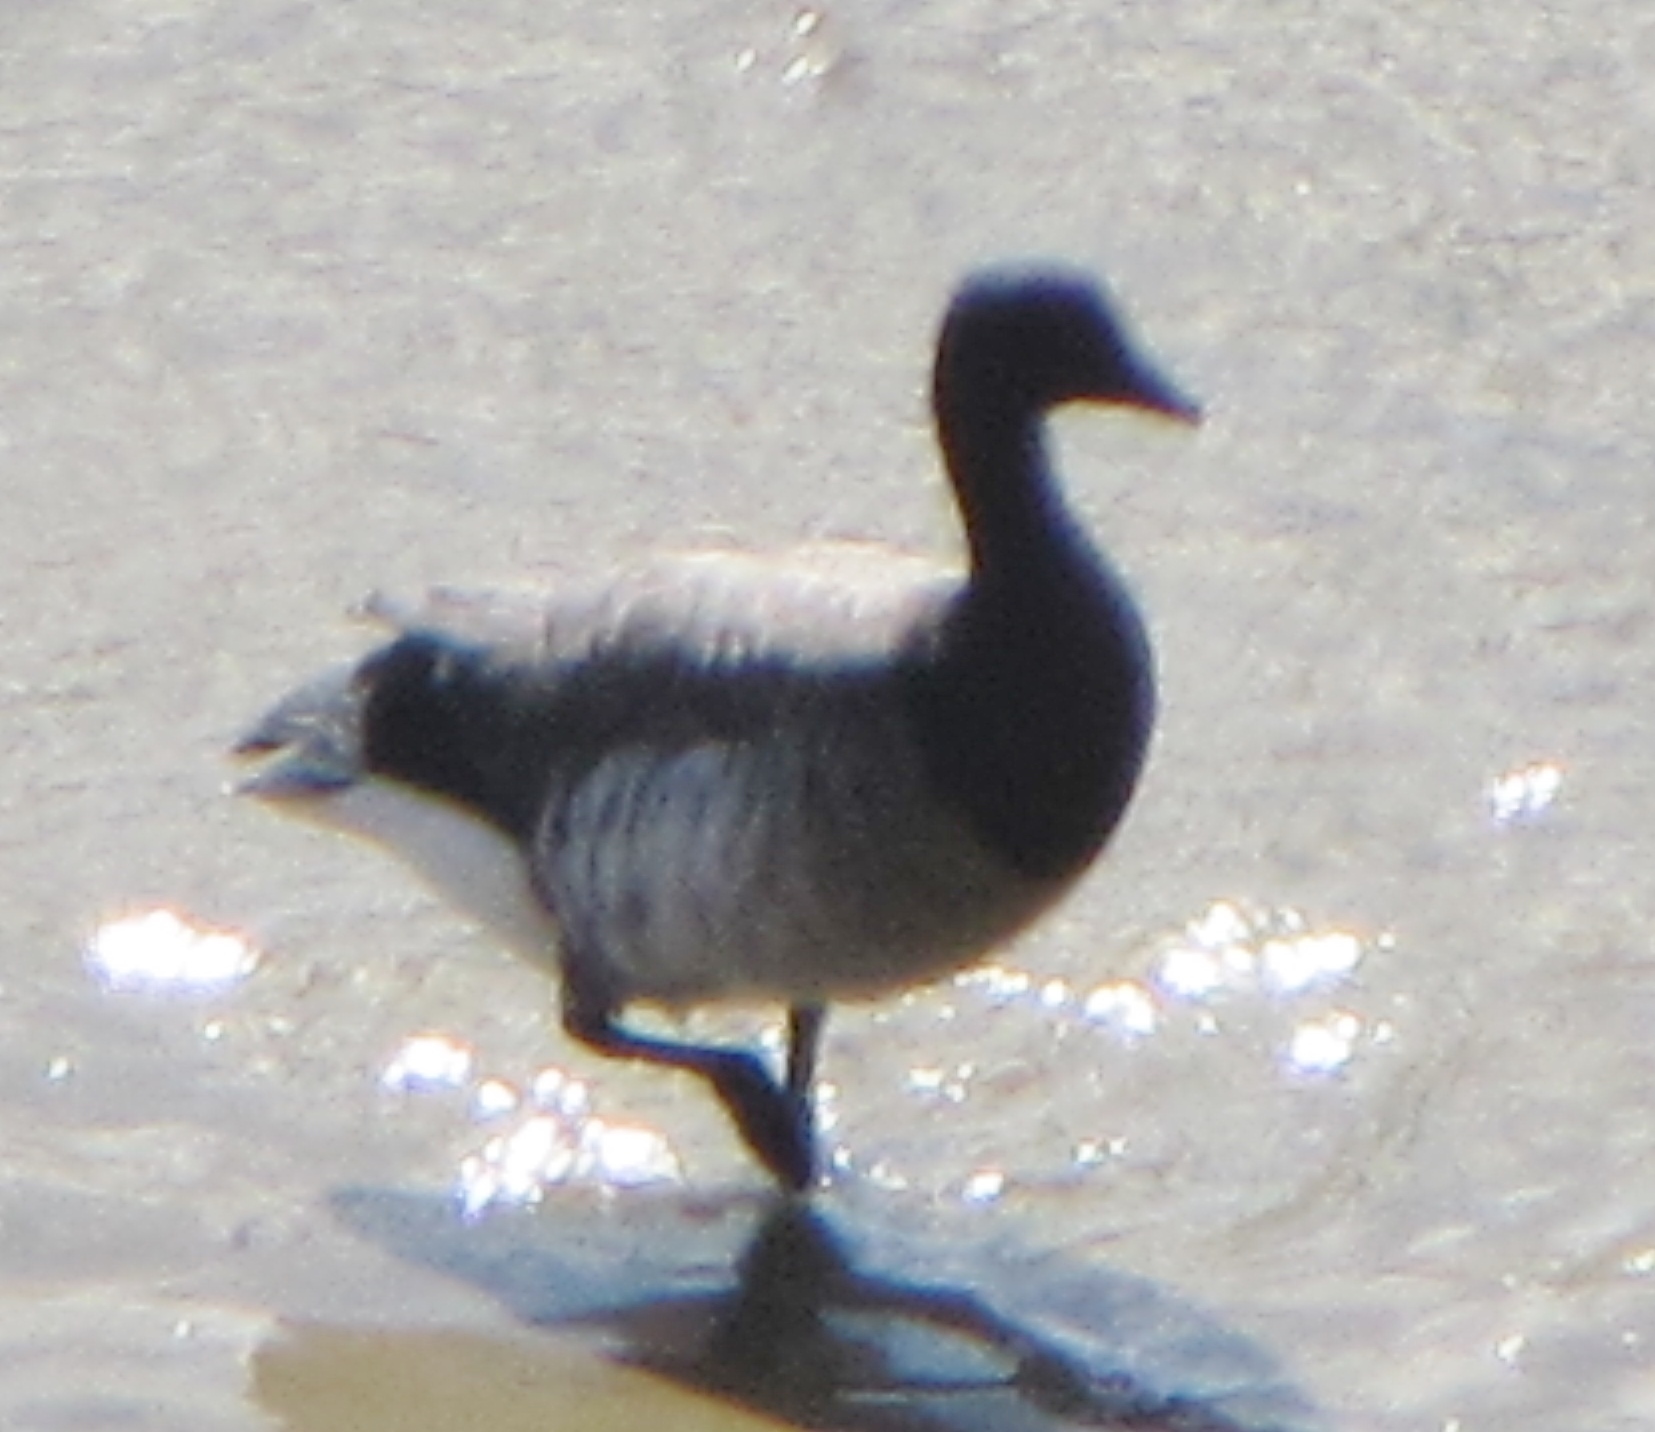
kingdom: Animalia
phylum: Chordata
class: Aves
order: Anseriformes
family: Anatidae
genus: Branta
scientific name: Branta bernicla
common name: Brant goose
